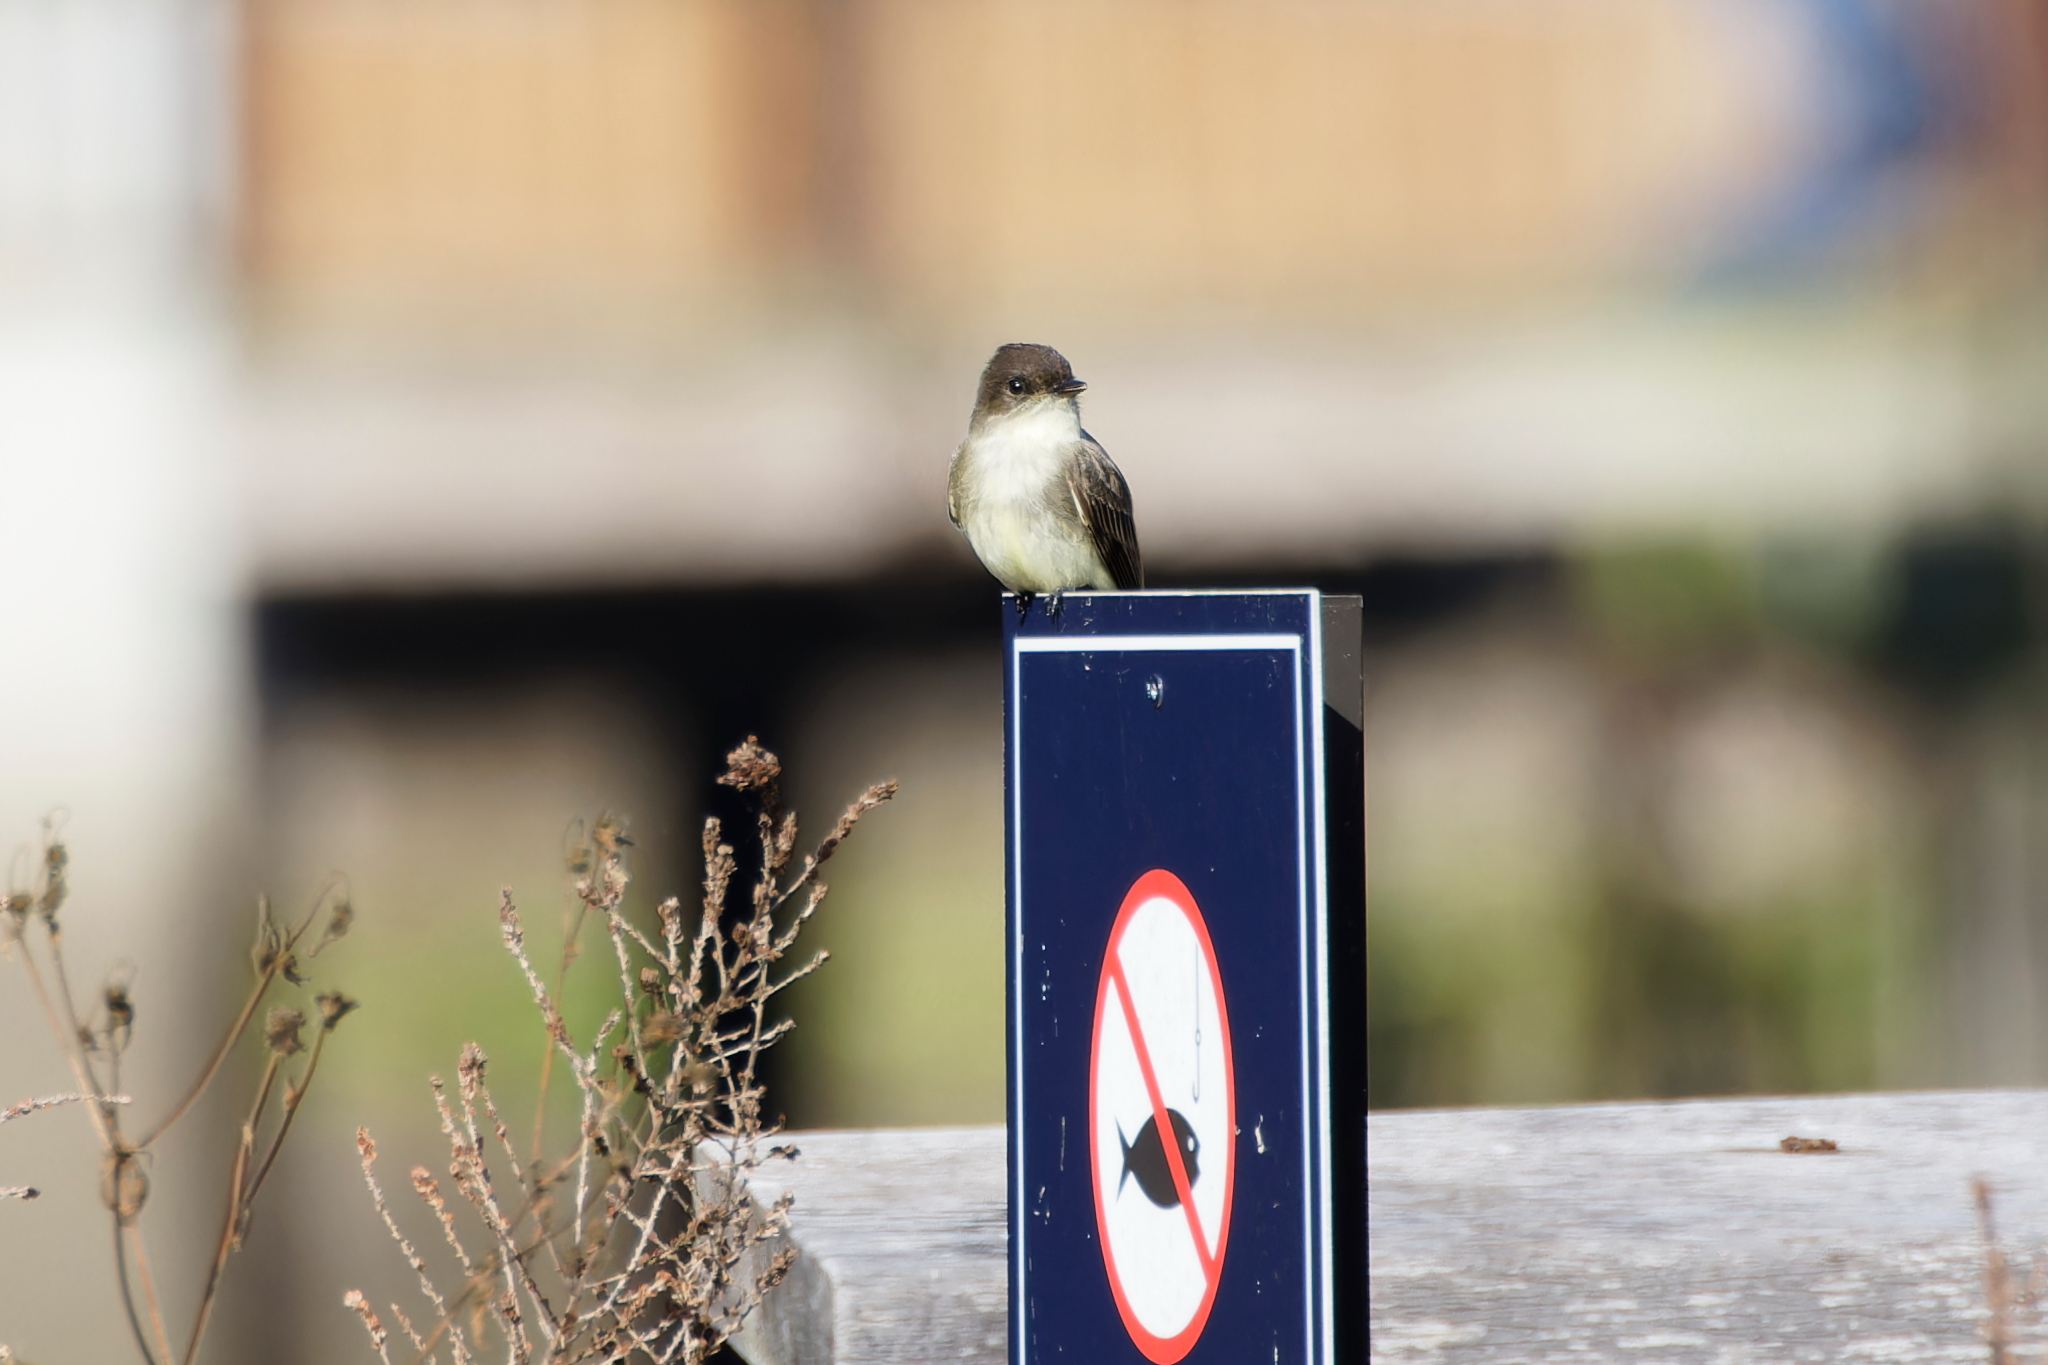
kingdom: Animalia
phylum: Chordata
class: Aves
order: Passeriformes
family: Tyrannidae
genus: Sayornis
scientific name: Sayornis phoebe
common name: Eastern phoebe
